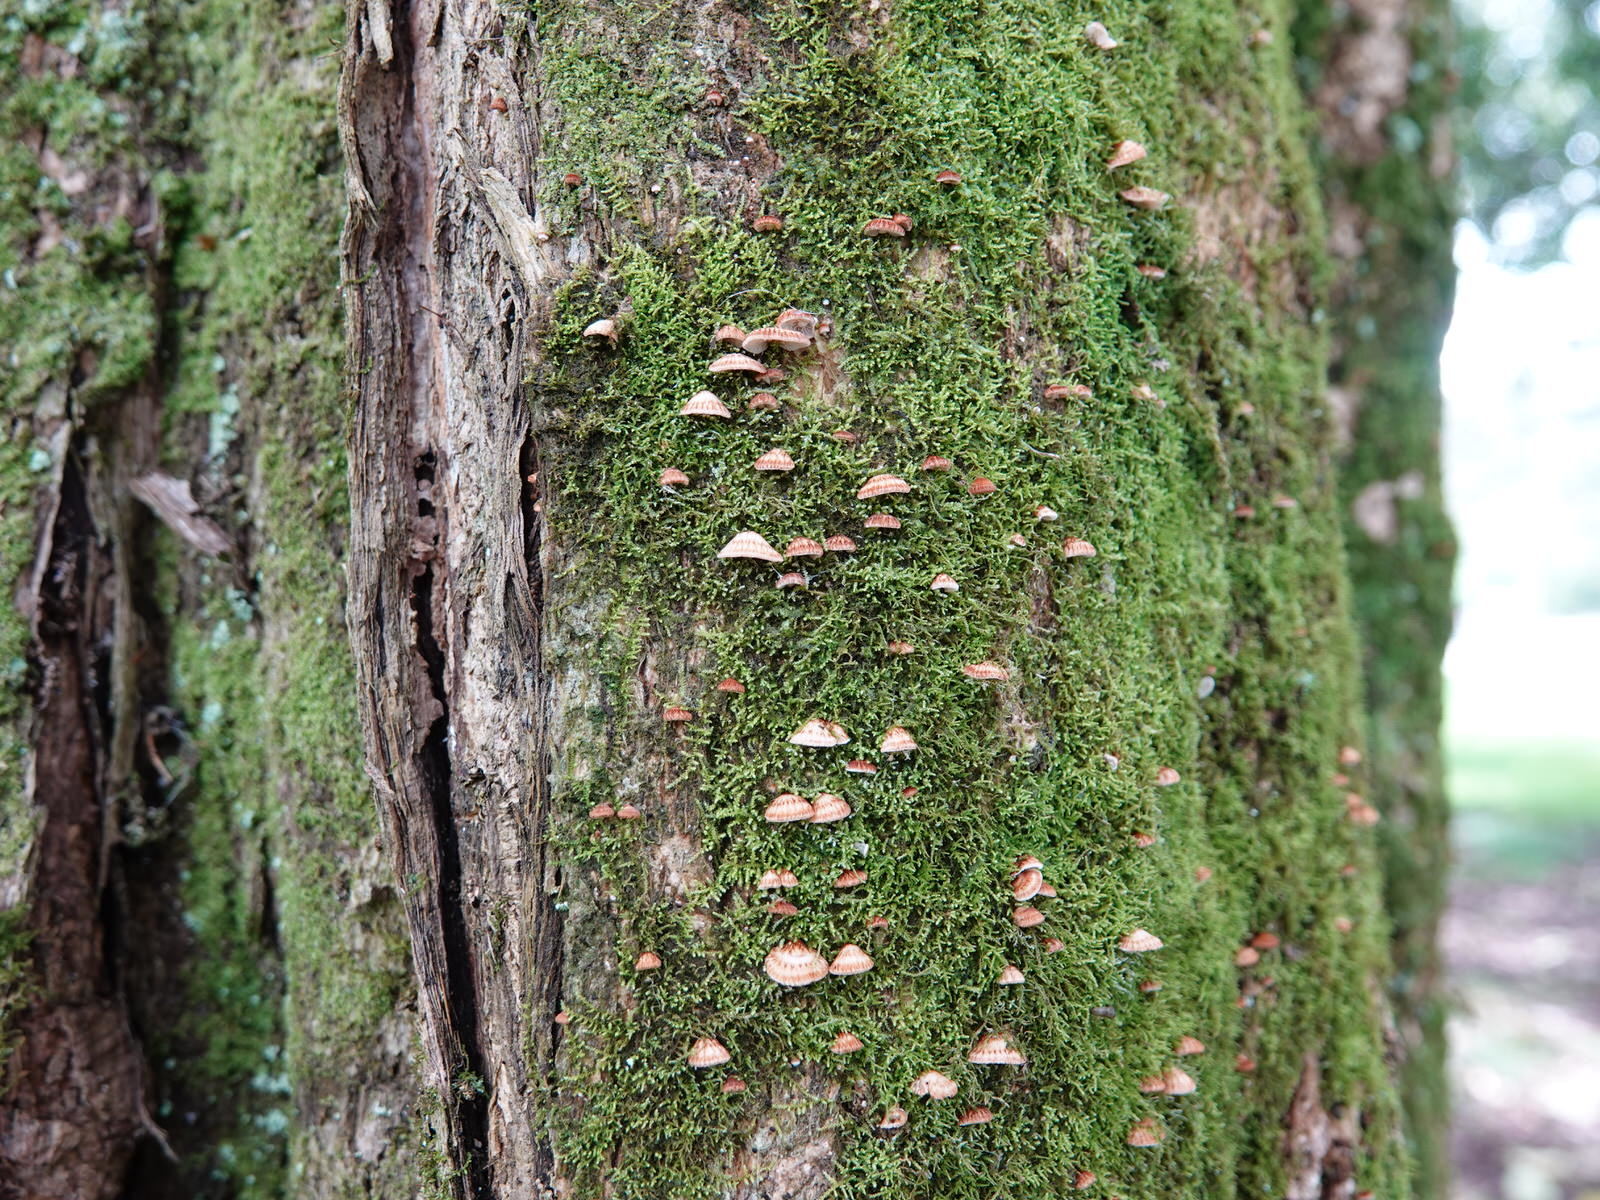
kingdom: Fungi
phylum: Basidiomycota
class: Agaricomycetes
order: Agaricales
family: Marasmiaceae
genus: Chaetocalathus
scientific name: Chaetocalathus cocciformis
